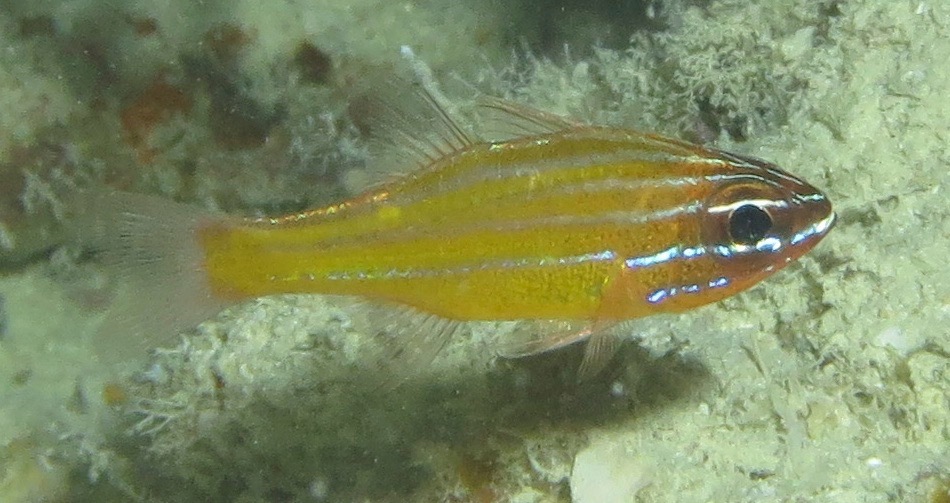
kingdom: Animalia
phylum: Chordata
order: Perciformes
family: Apogonidae
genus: Ostorhinchus
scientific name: Ostorhinchus properuptus
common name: Coral cardinalfish
